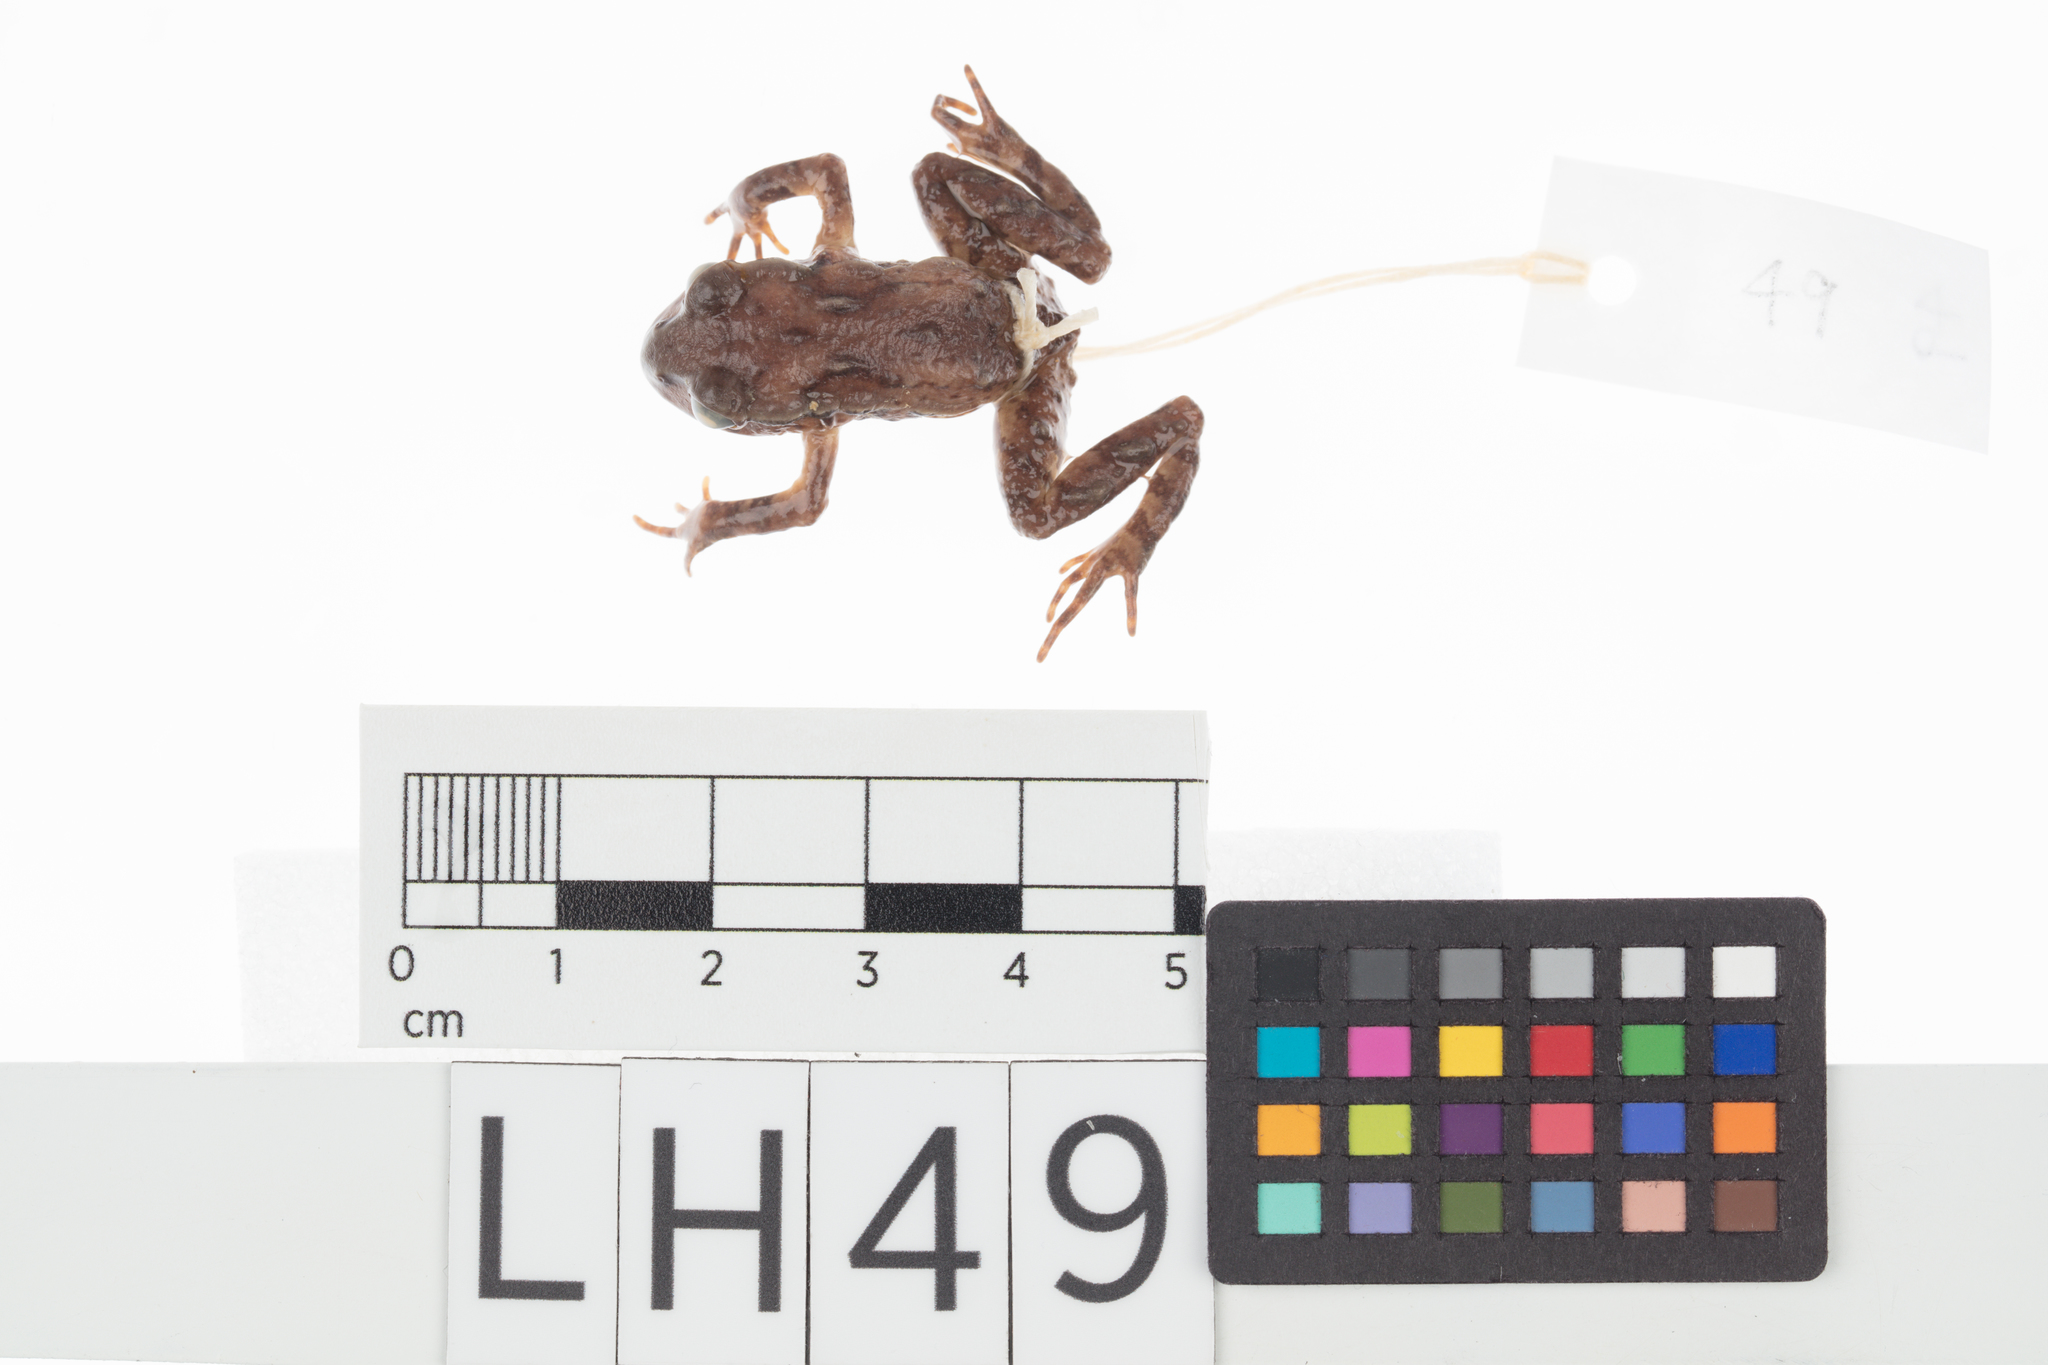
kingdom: Animalia
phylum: Chordata
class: Amphibia
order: Anura
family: Leiopelmatidae
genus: Leiopelma
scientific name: Leiopelma archeyi
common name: Archey's frog
